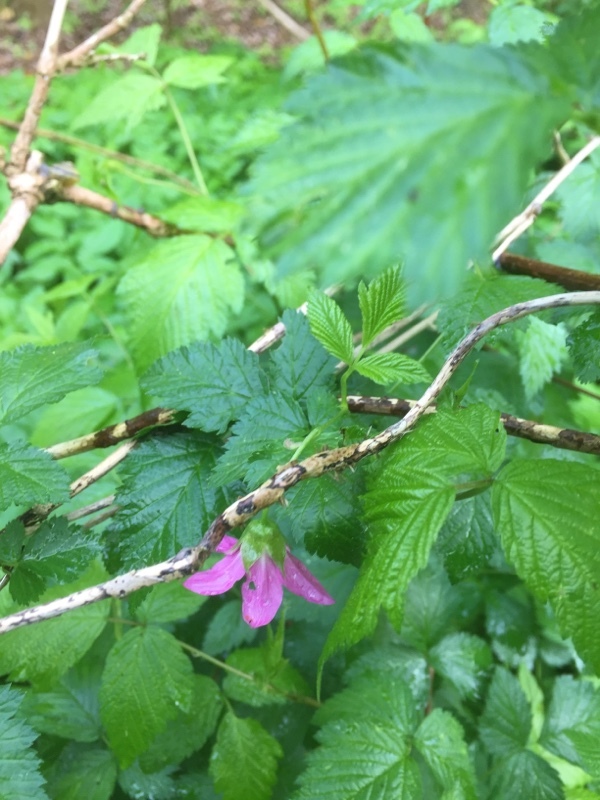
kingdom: Plantae
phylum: Tracheophyta
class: Magnoliopsida
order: Rosales
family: Rosaceae
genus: Rubus
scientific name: Rubus spectabilis
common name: Salmonberry
